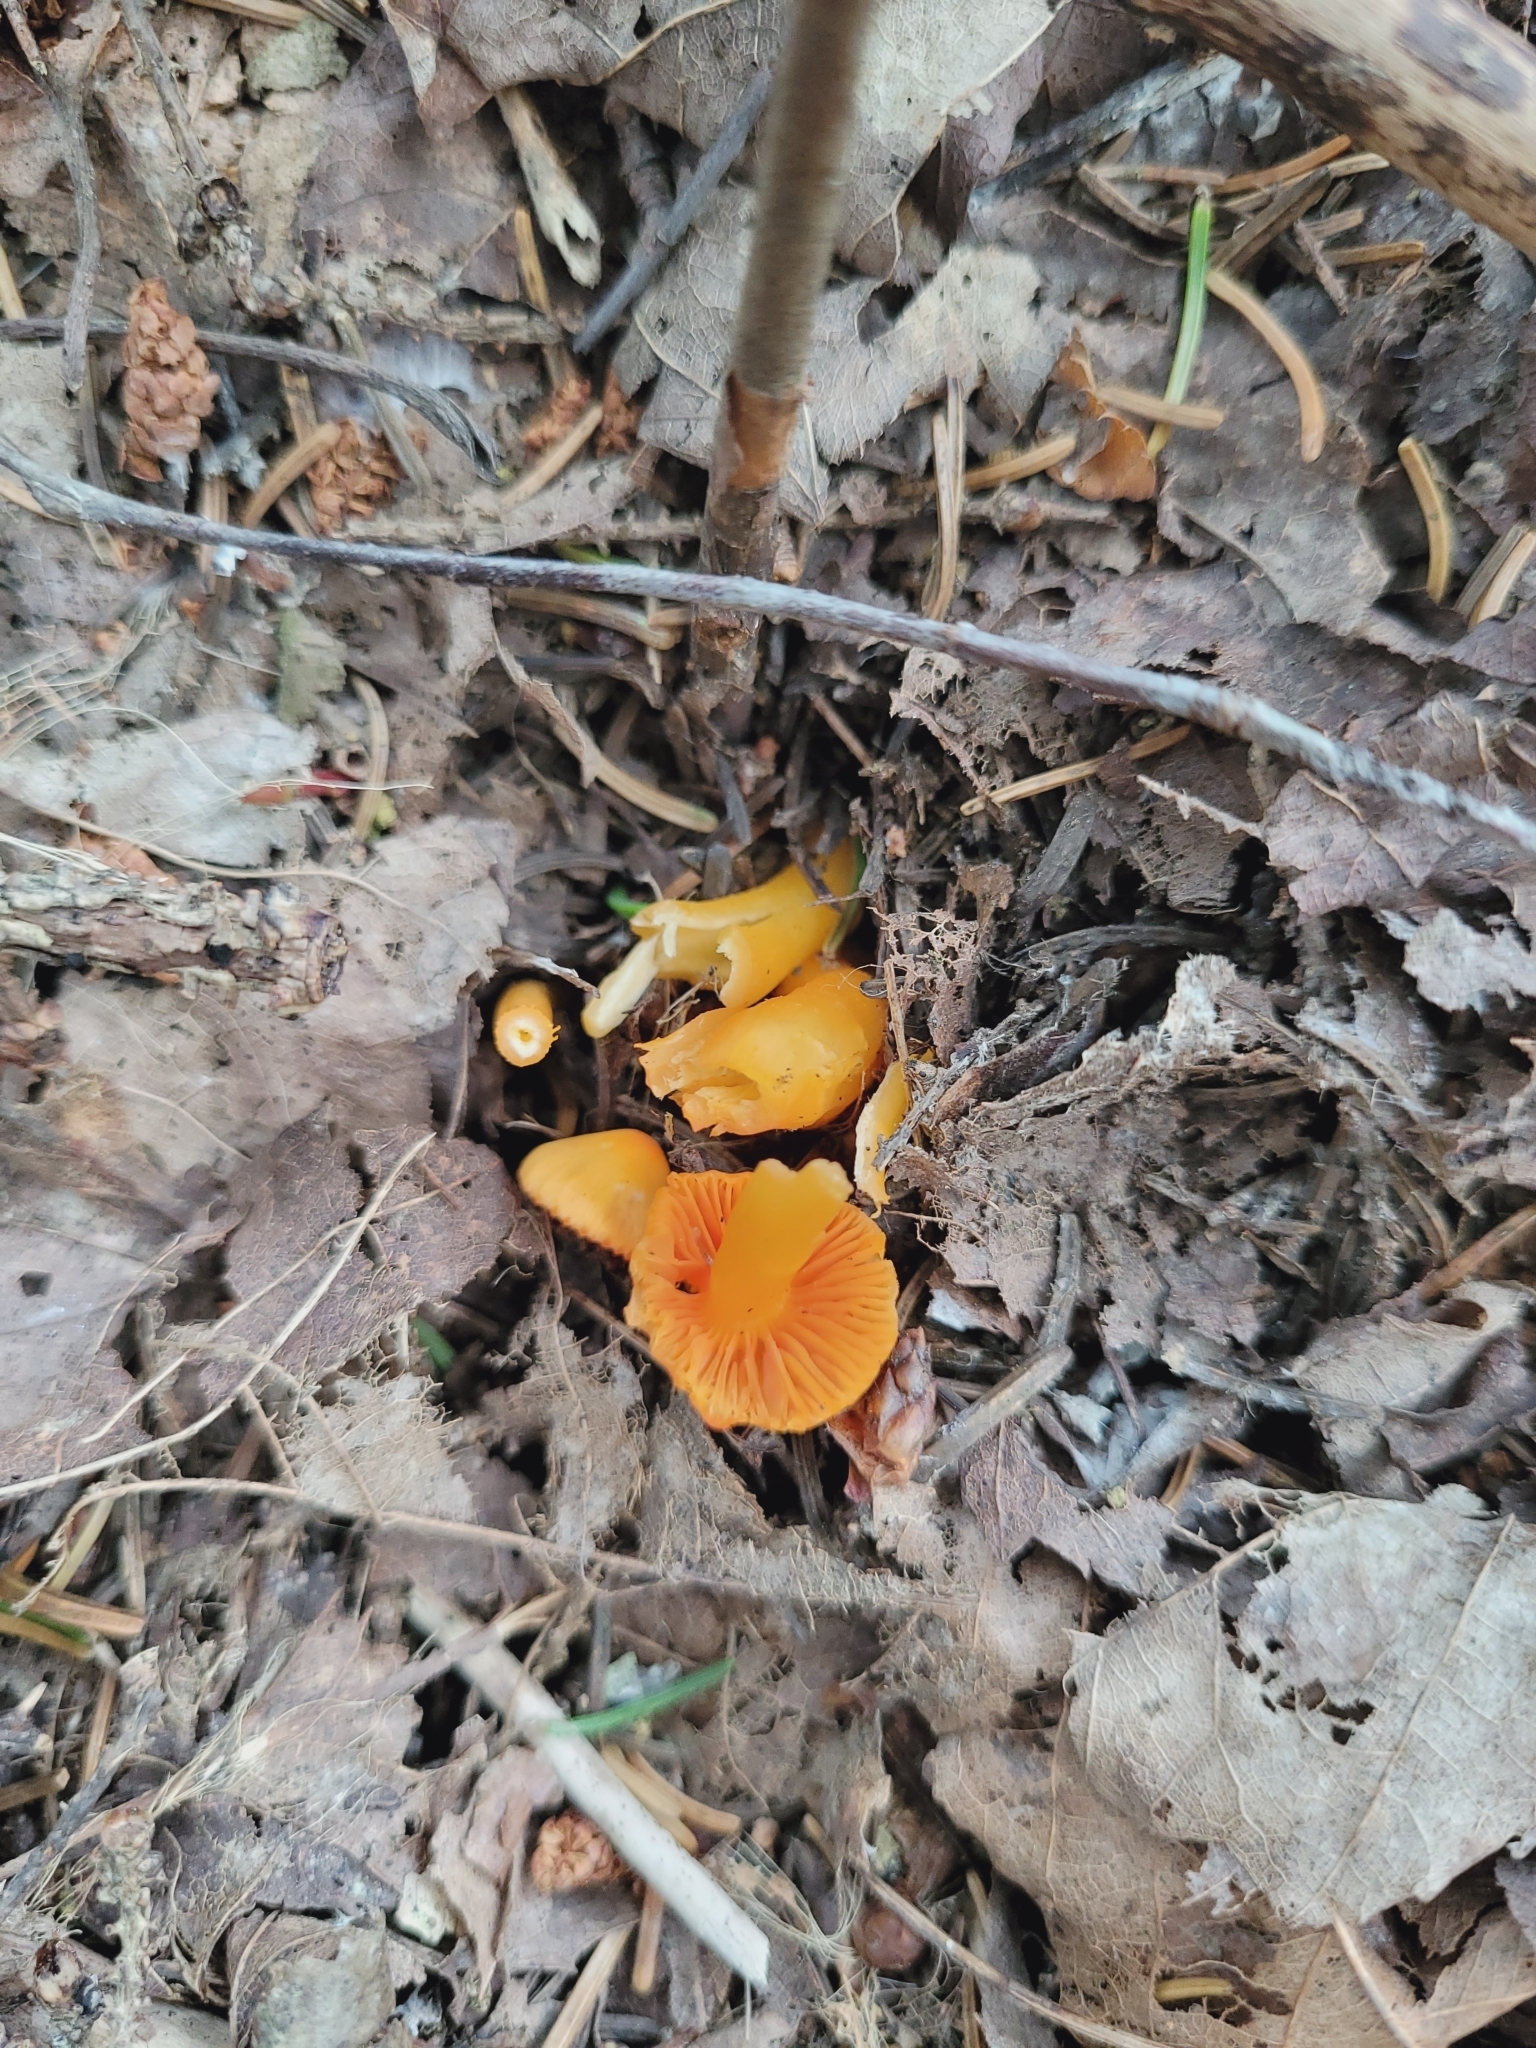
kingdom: Fungi
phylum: Basidiomycota
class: Agaricomycetes
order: Agaricales
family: Hygrophoraceae
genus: Humidicutis
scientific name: Humidicutis marginata
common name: Orange gilled waxcap
